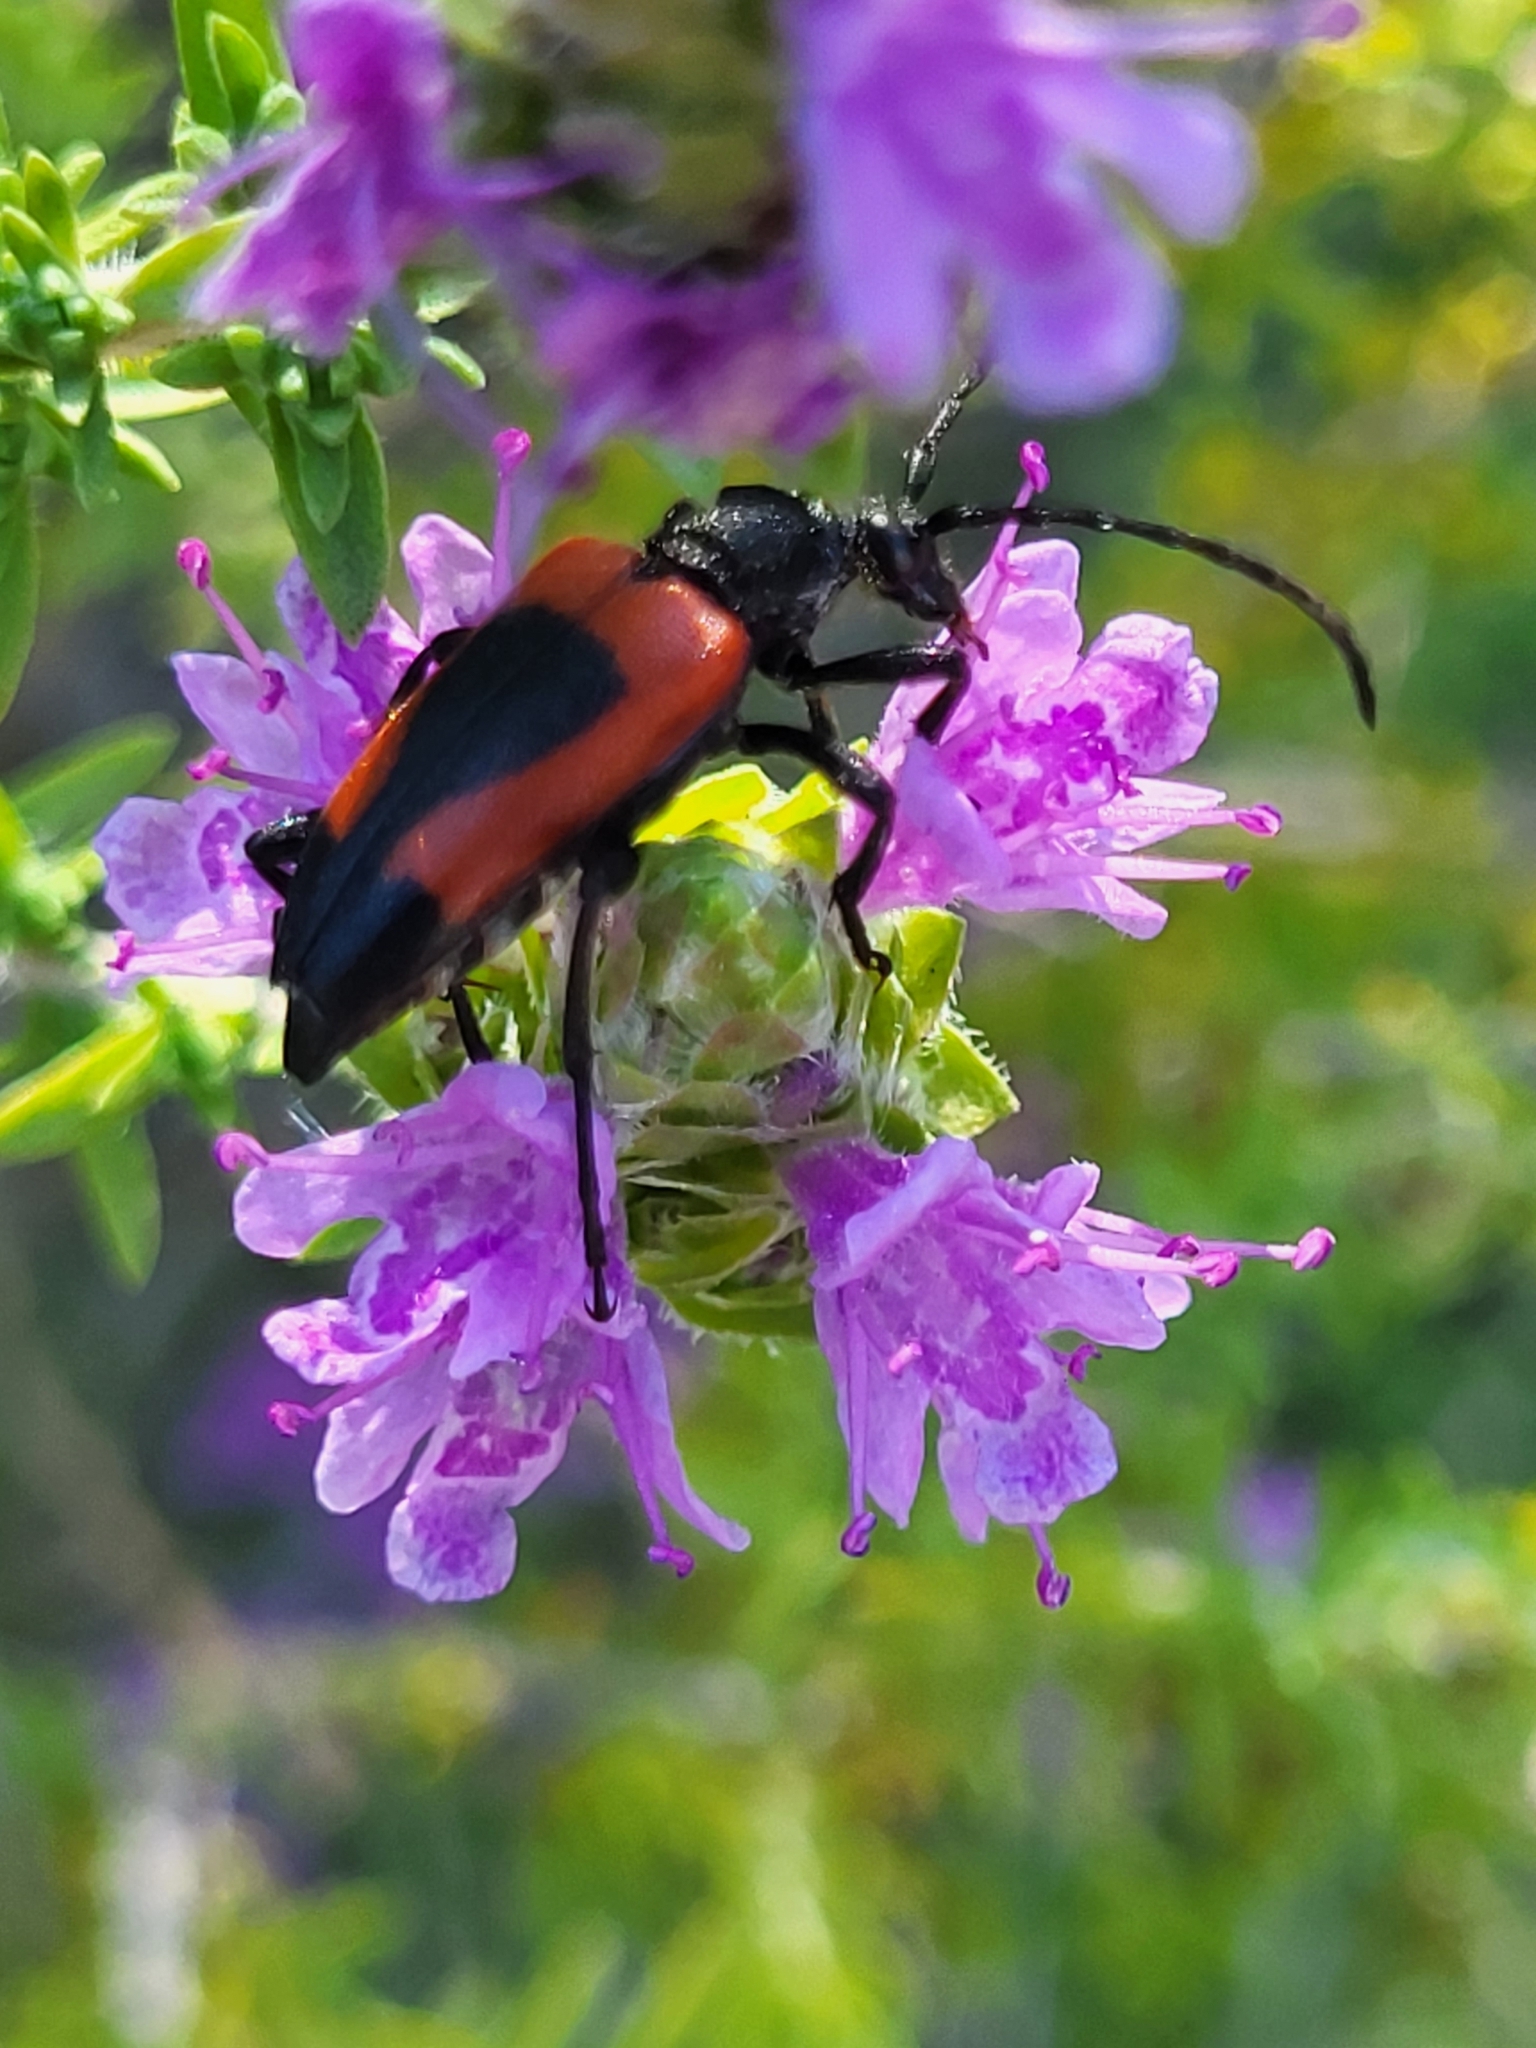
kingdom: Animalia
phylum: Arthropoda
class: Insecta
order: Coleoptera
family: Cerambycidae
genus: Stictoleptura
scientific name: Stictoleptura cordigera
